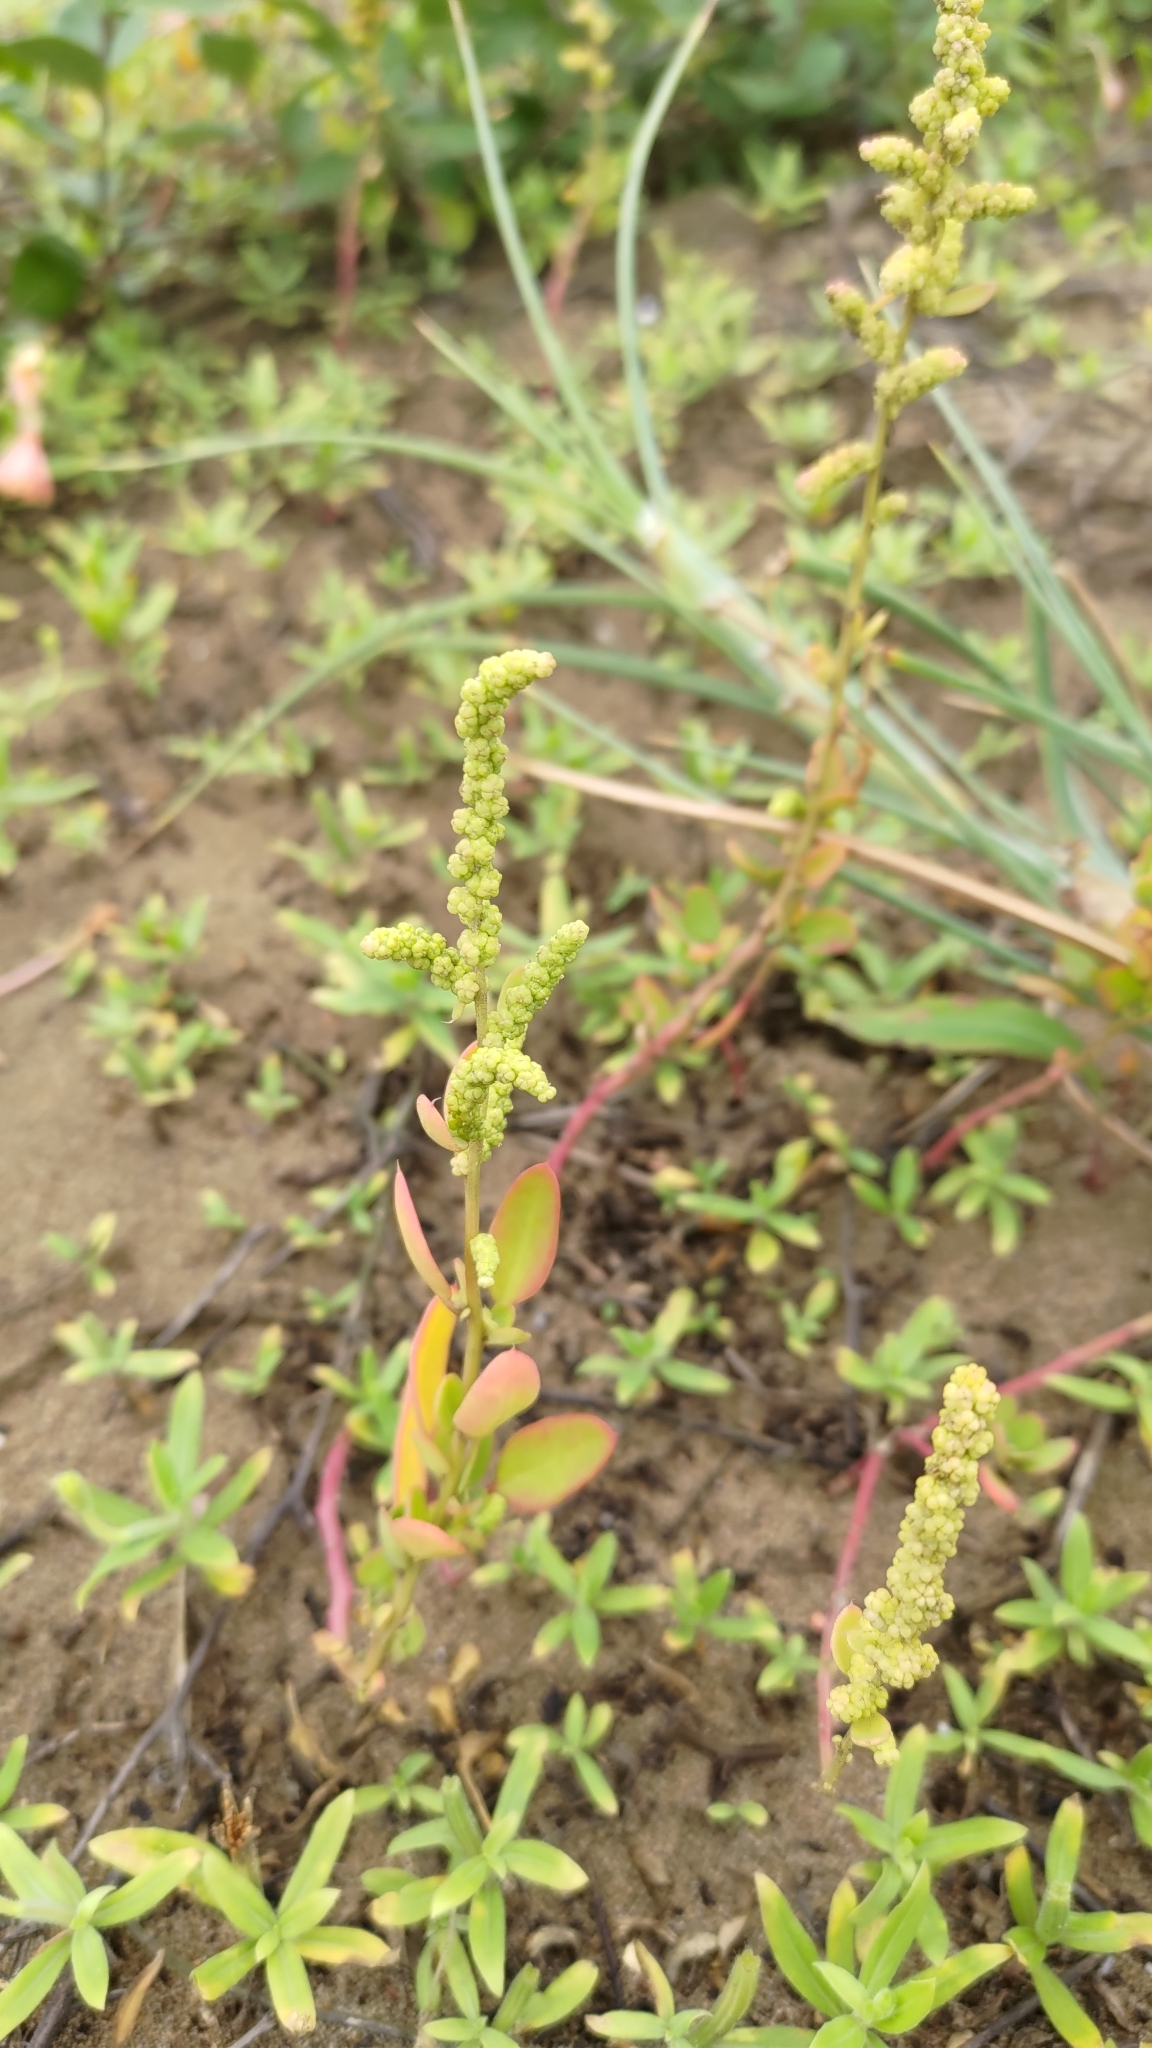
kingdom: Plantae
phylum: Tracheophyta
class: Magnoliopsida
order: Caryophyllales
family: Amaranthaceae
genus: Chenopodium
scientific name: Chenopodium acuminatum
